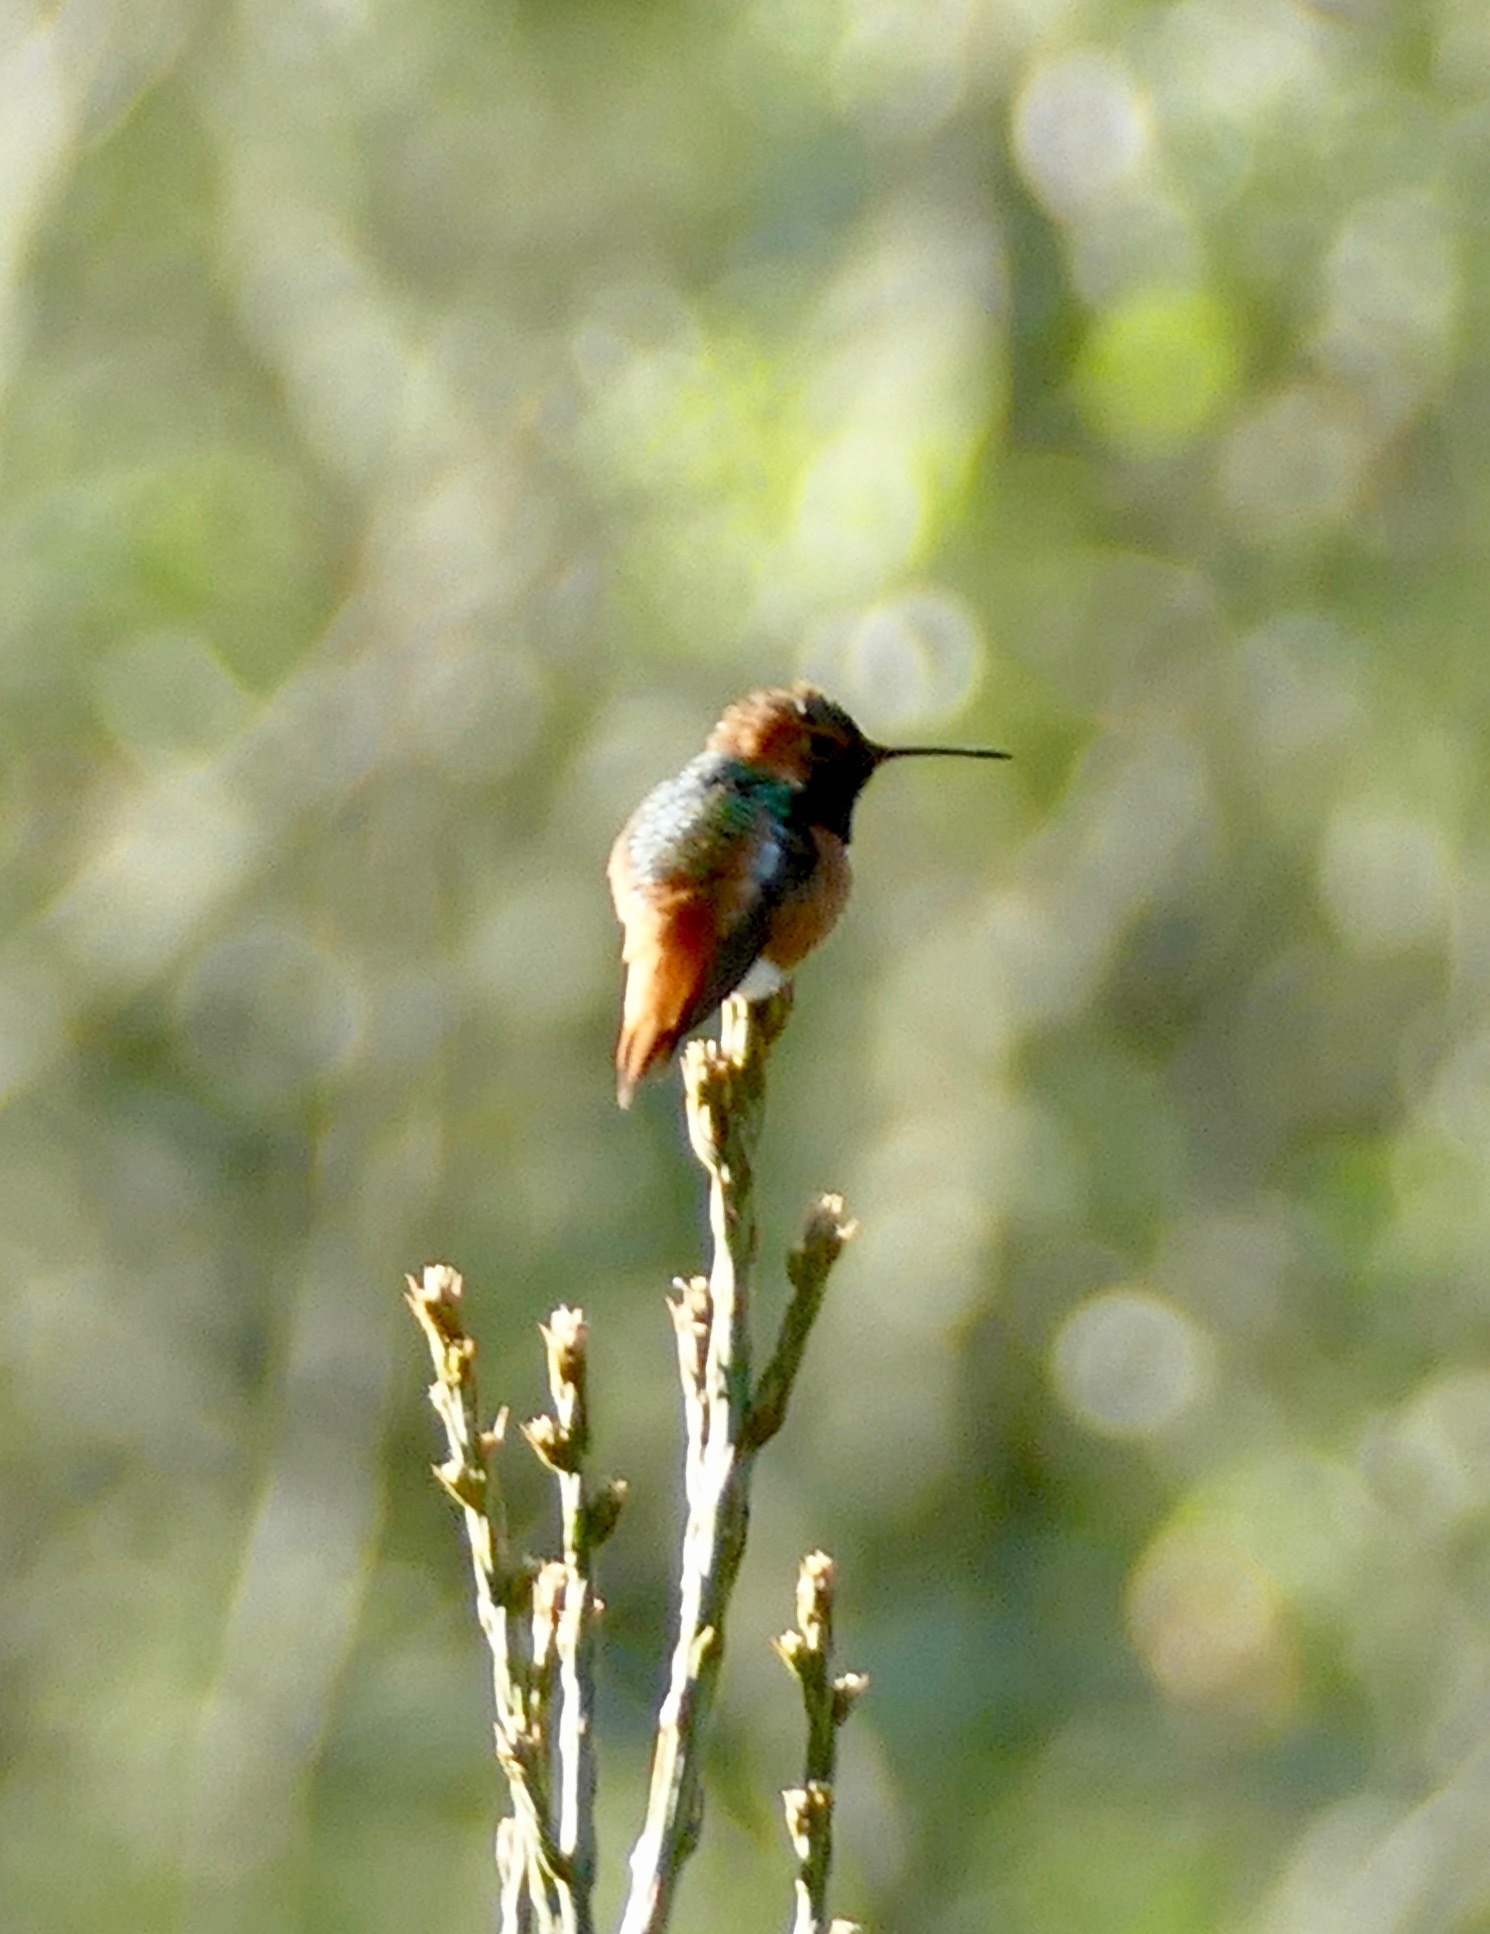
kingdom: Animalia
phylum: Chordata
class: Aves
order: Apodiformes
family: Trochilidae
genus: Selasphorus
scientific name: Selasphorus sasin
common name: Allen's hummingbird
